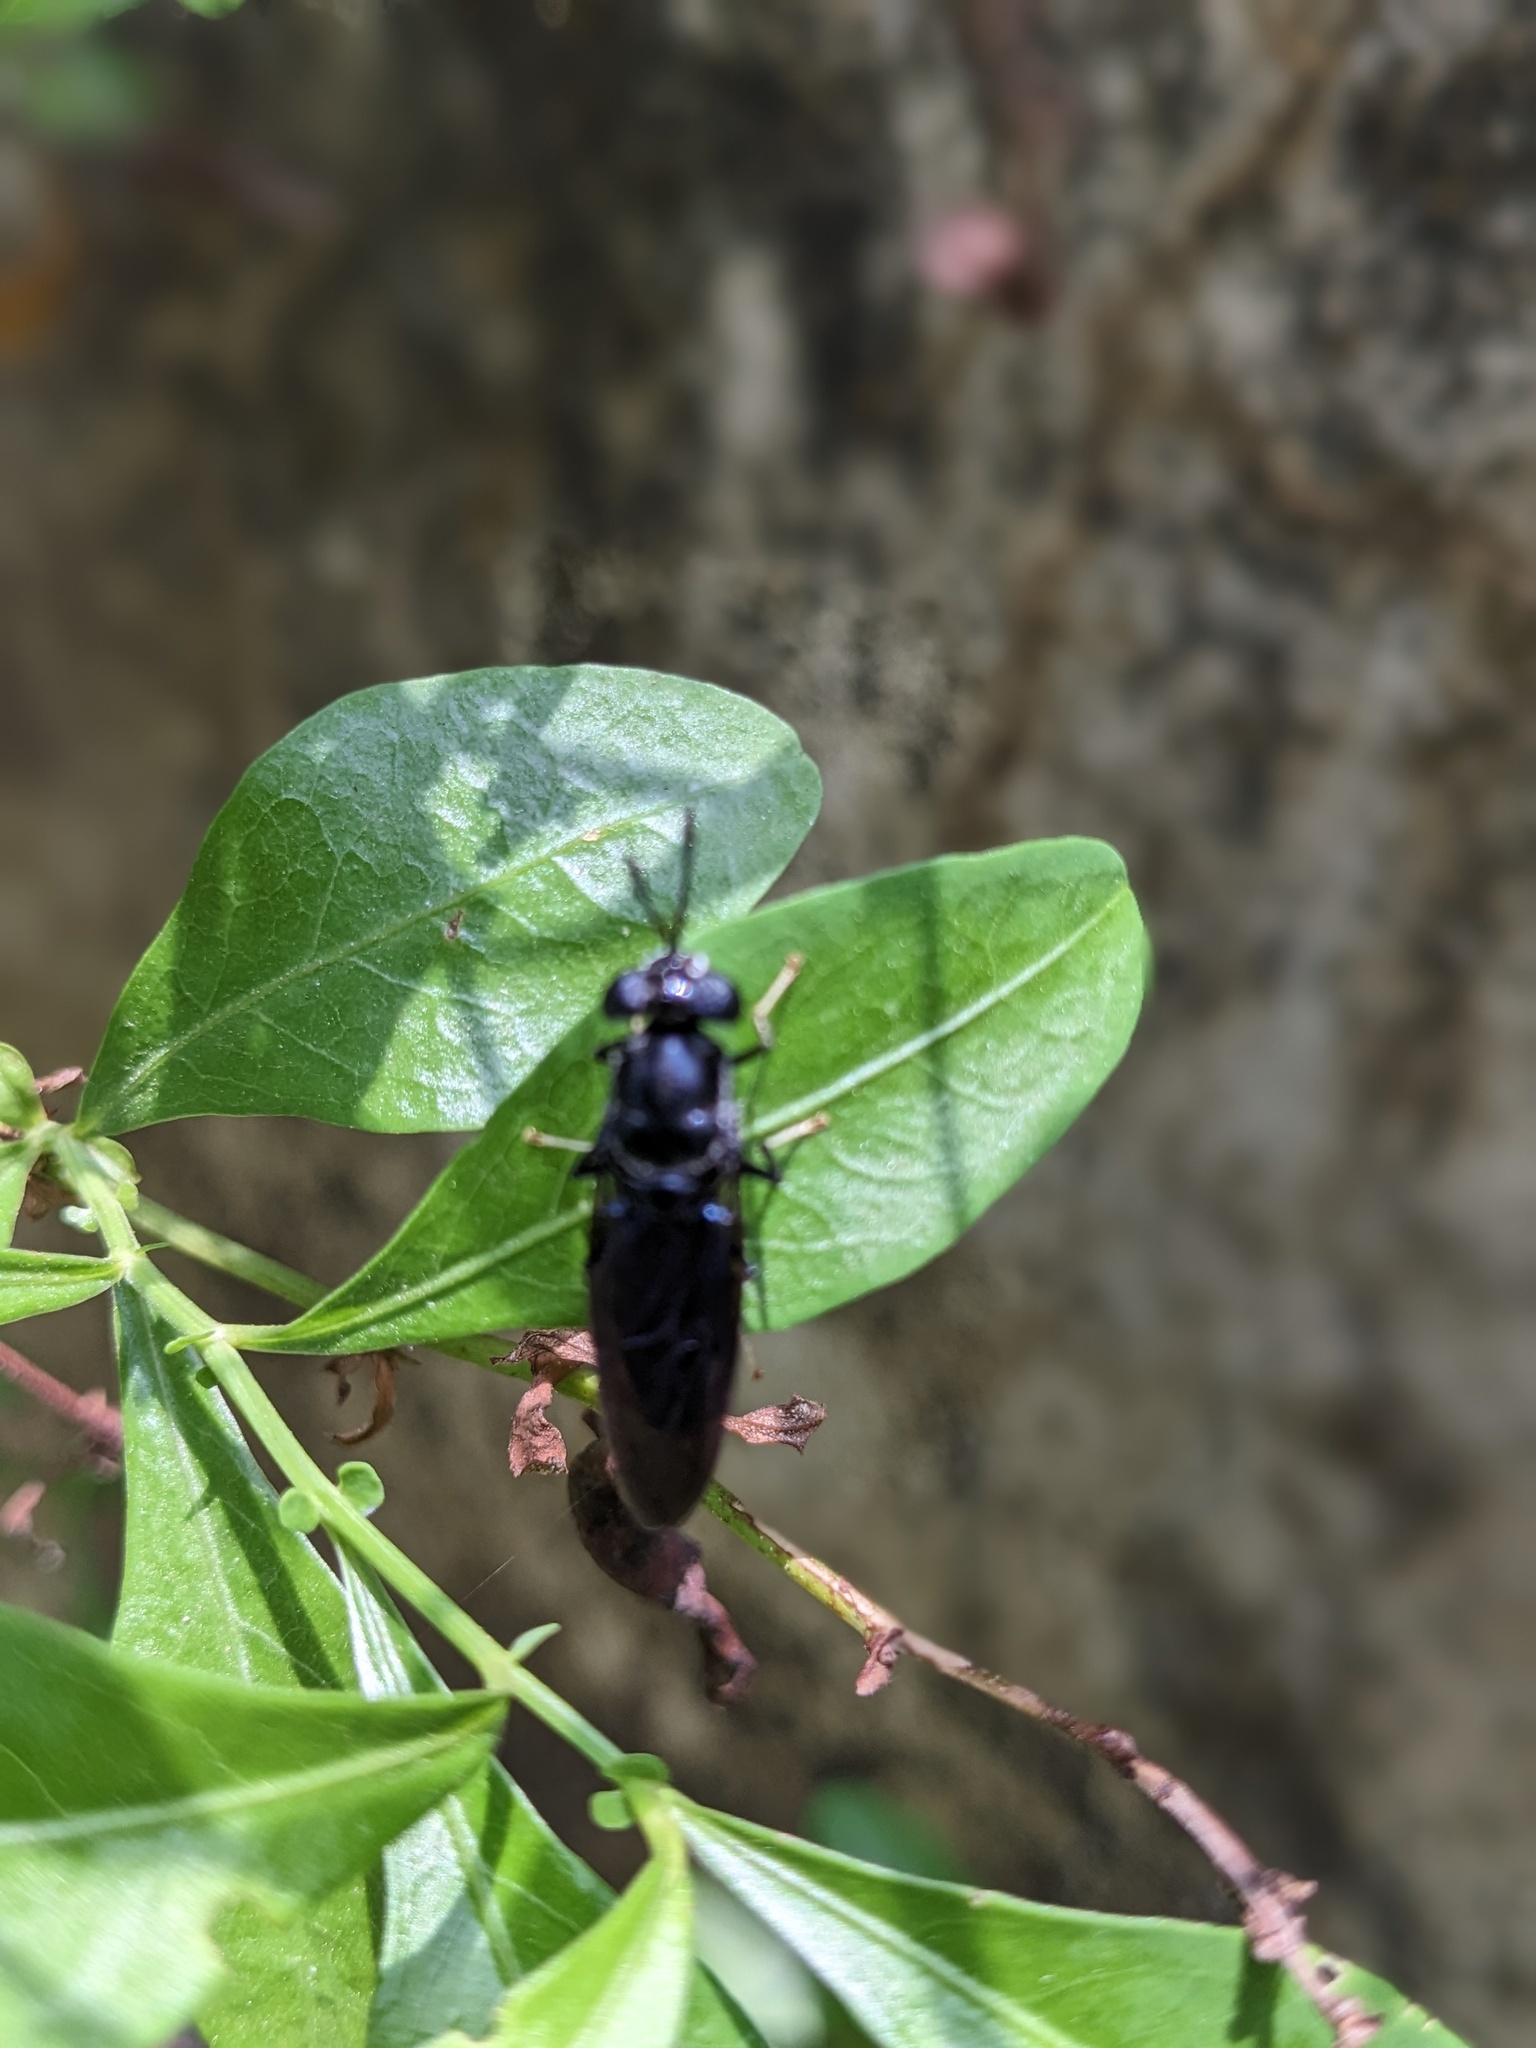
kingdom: Animalia
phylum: Arthropoda
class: Insecta
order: Diptera
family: Stratiomyidae
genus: Hermetia
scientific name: Hermetia illucens
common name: Black soldier fly
